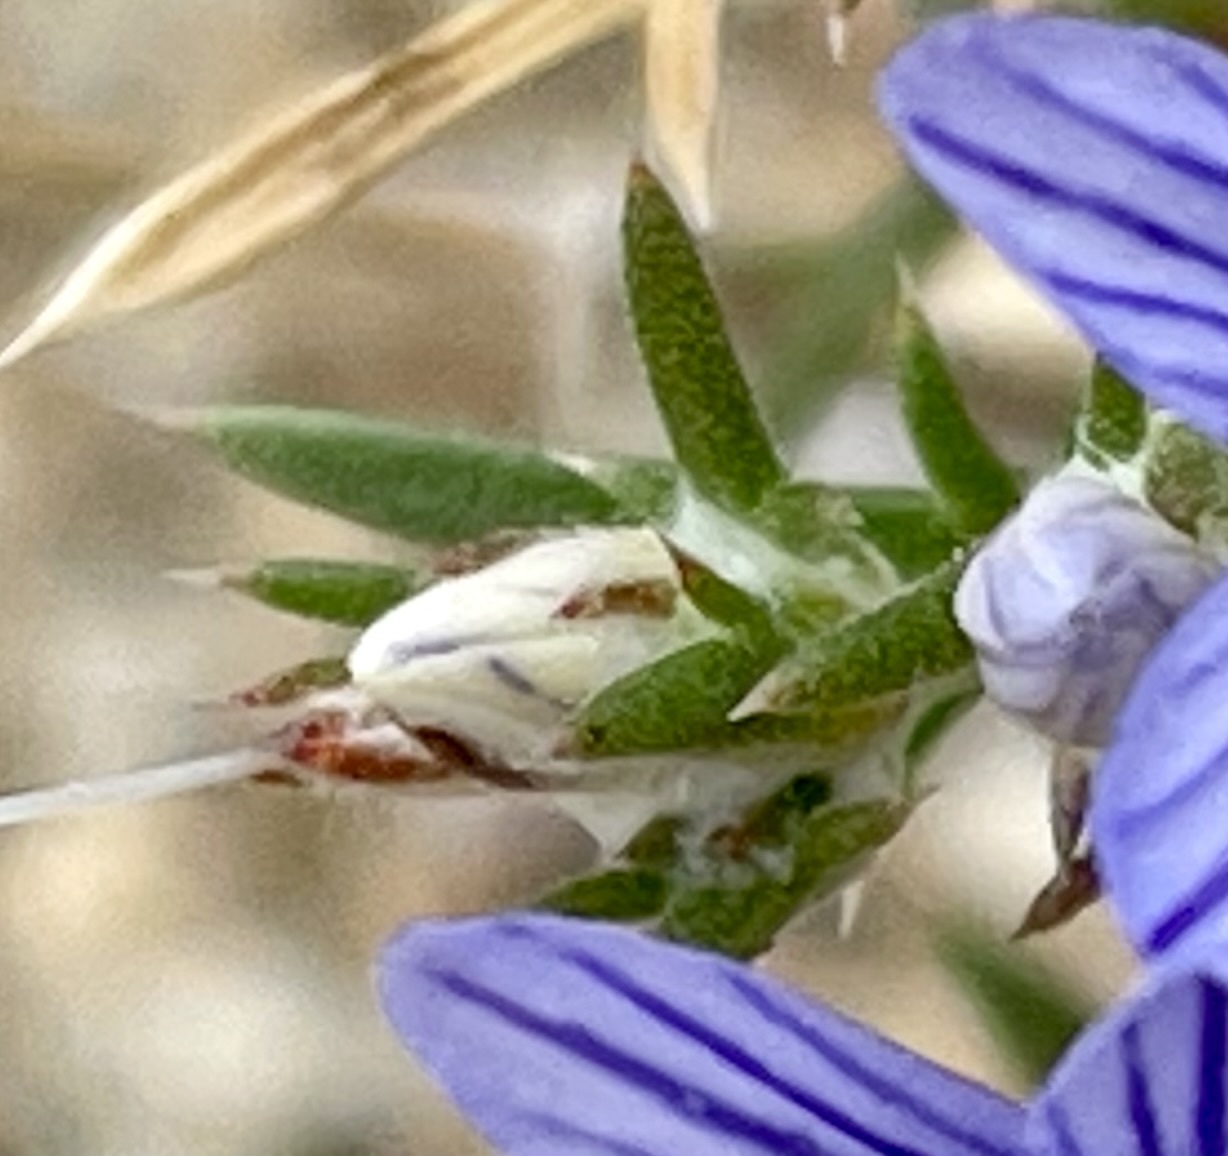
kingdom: Plantae
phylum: Tracheophyta
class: Magnoliopsida
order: Ericales
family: Polemoniaceae
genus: Eriastrum
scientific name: Eriastrum densifolium
